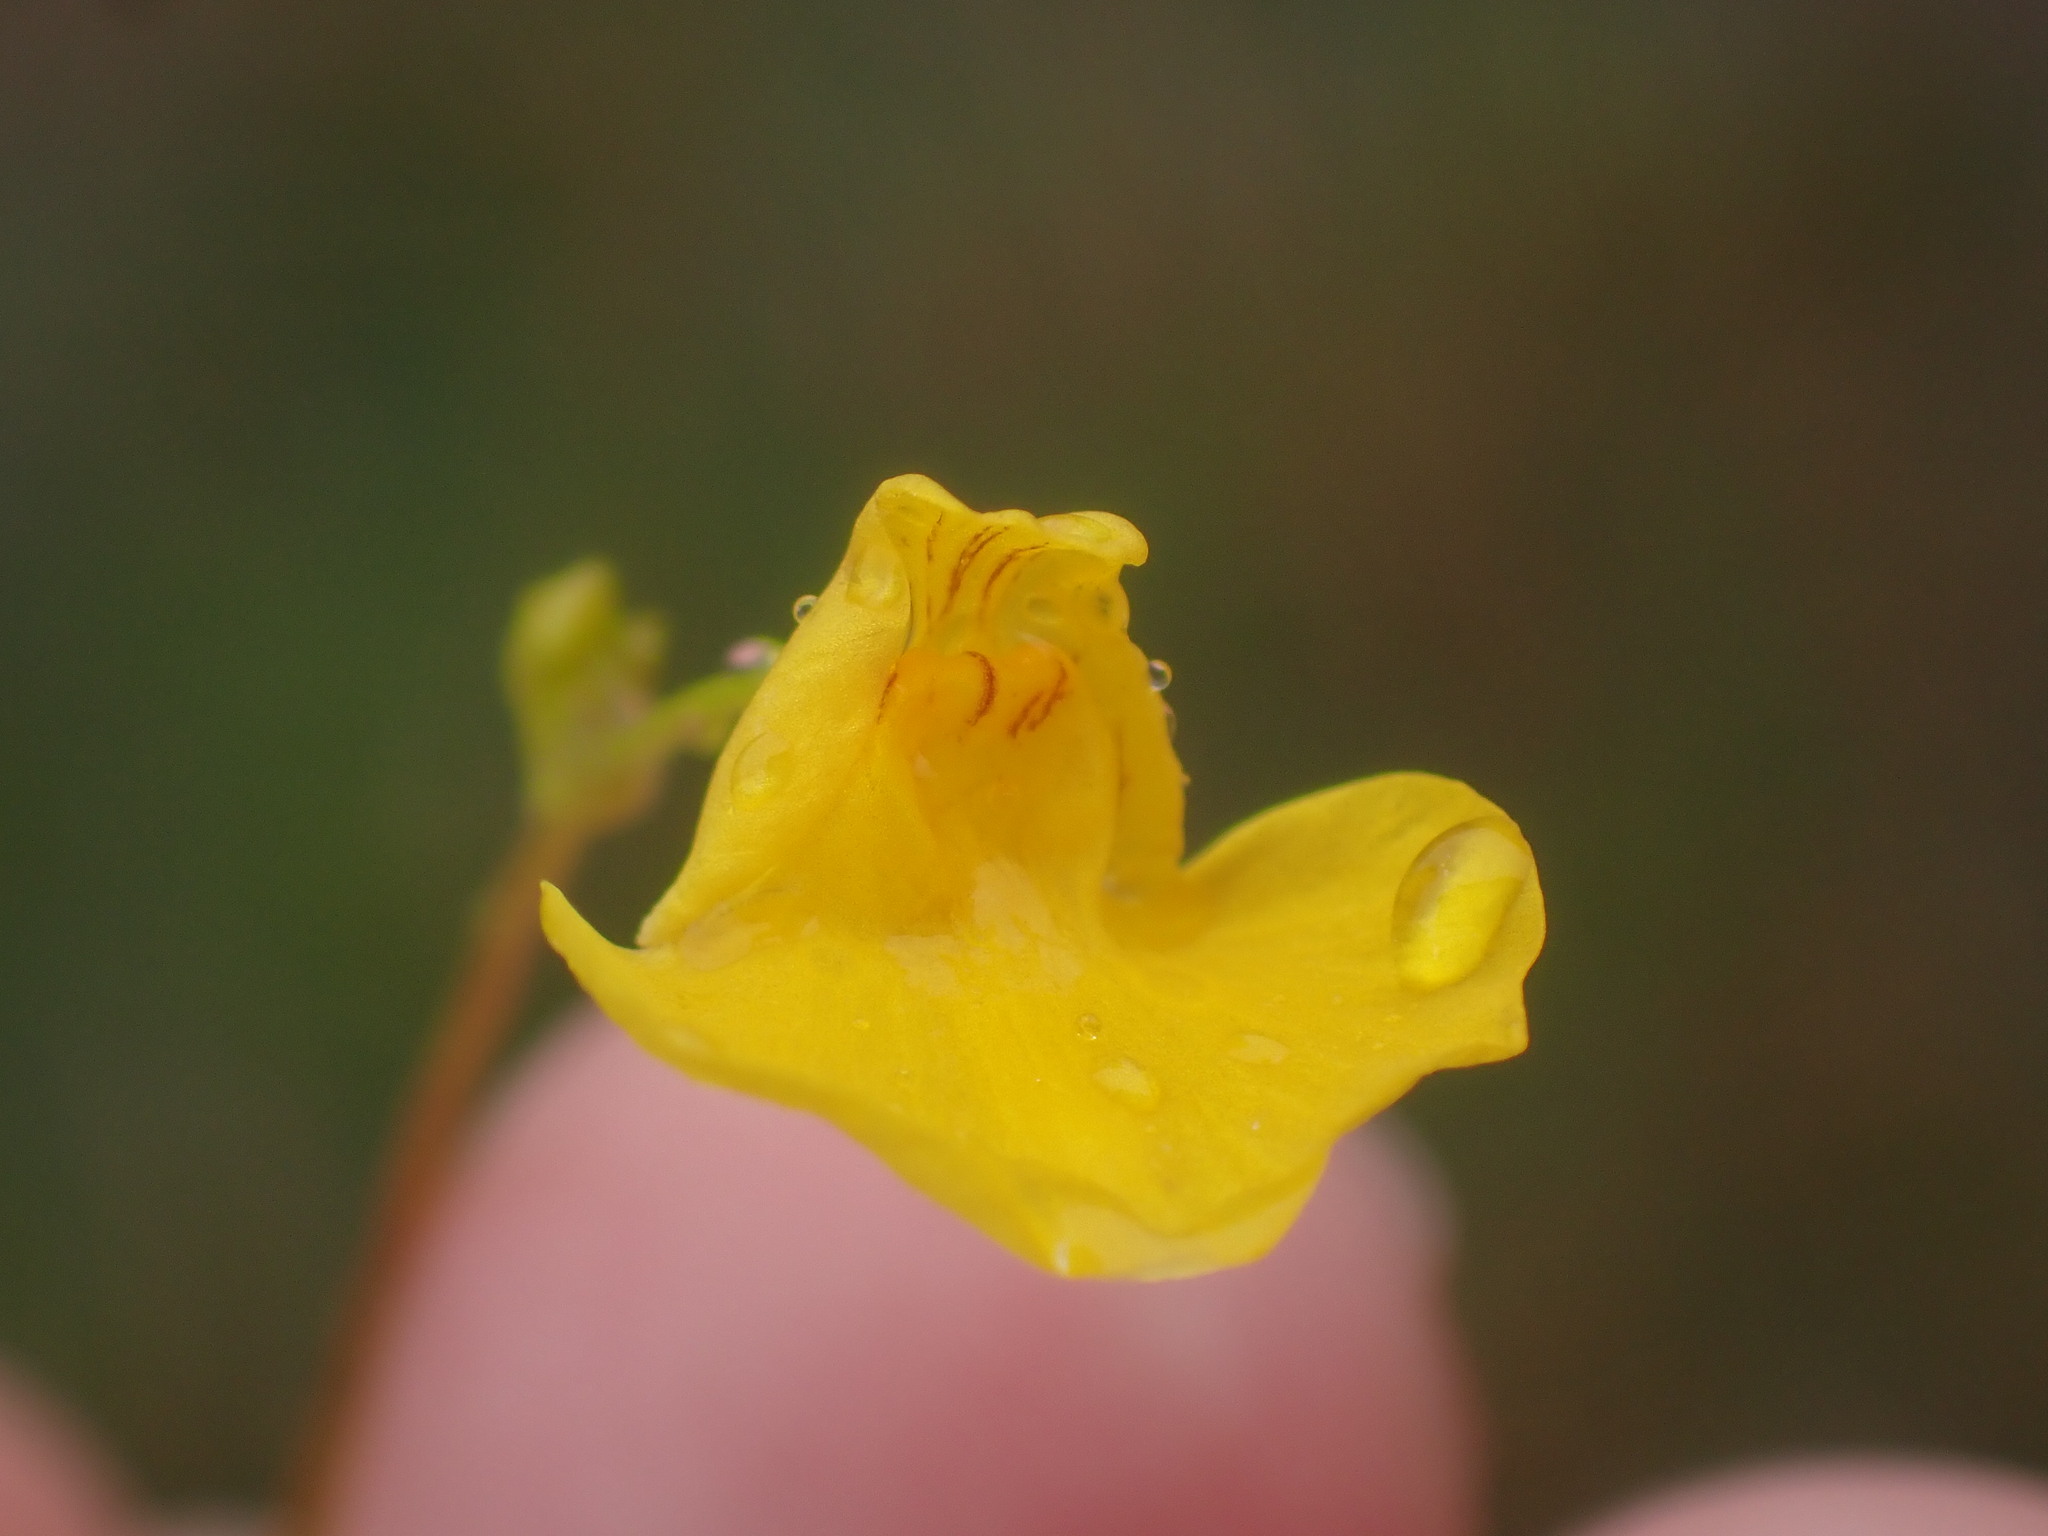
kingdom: Plantae
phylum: Tracheophyta
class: Magnoliopsida
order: Lamiales
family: Lentibulariaceae
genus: Utricularia
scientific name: Utricularia intermedia
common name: Intermediate bladderwort
